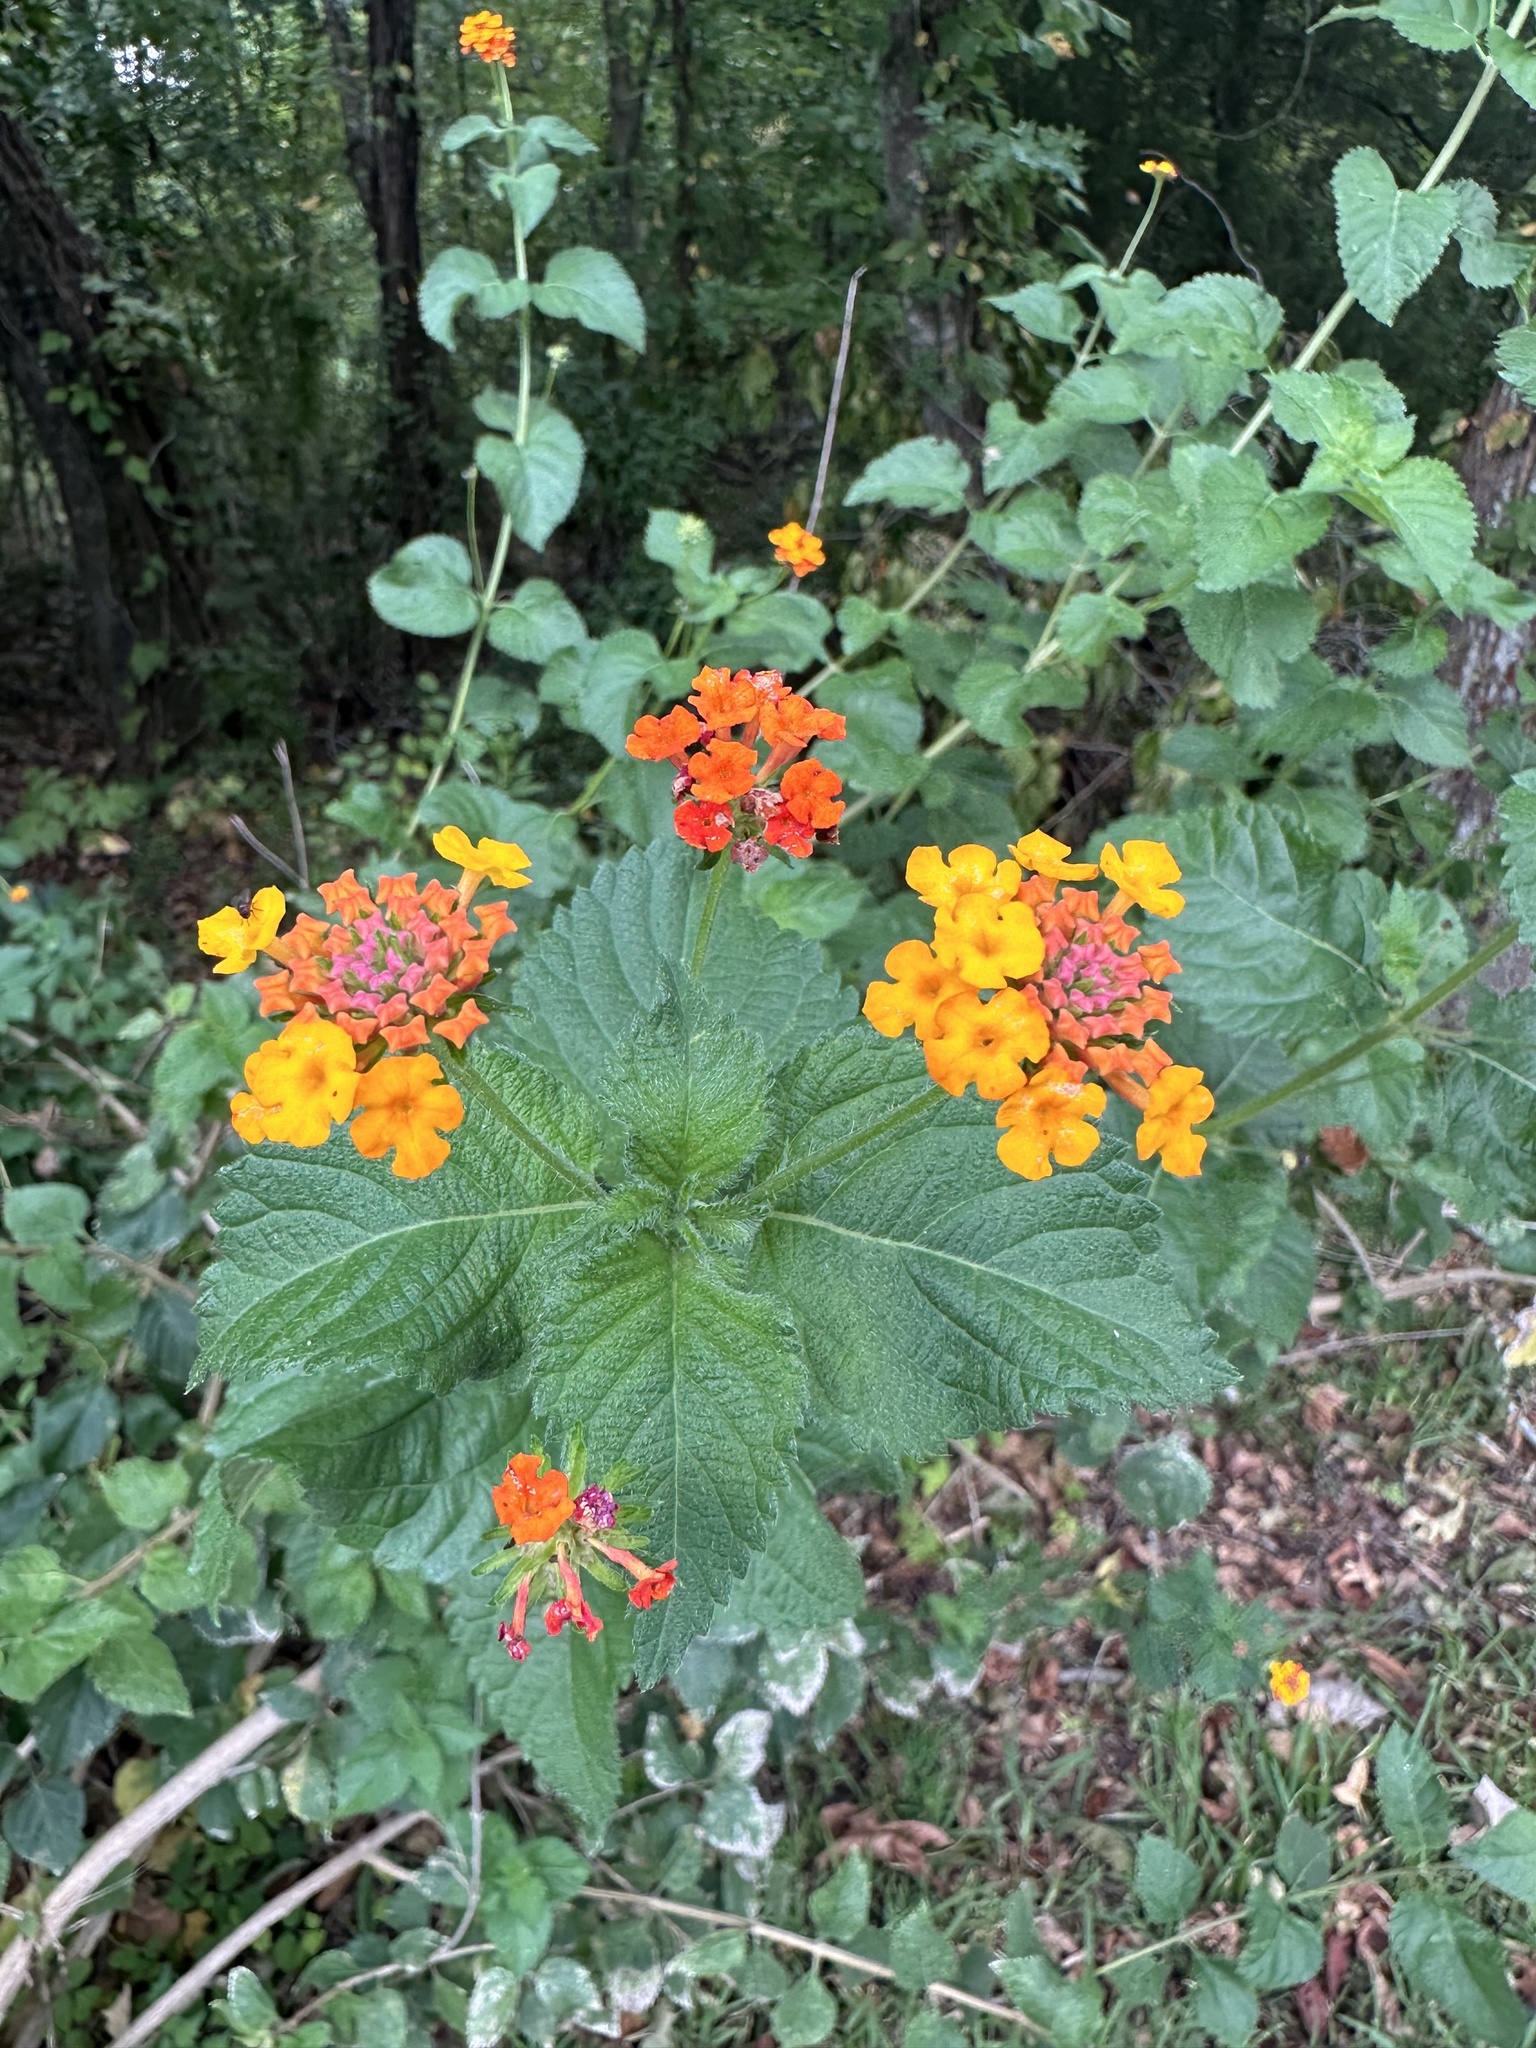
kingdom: Plantae
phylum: Tracheophyta
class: Magnoliopsida
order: Lamiales
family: Verbenaceae
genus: Lantana
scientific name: Lantana camara
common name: Lantana
